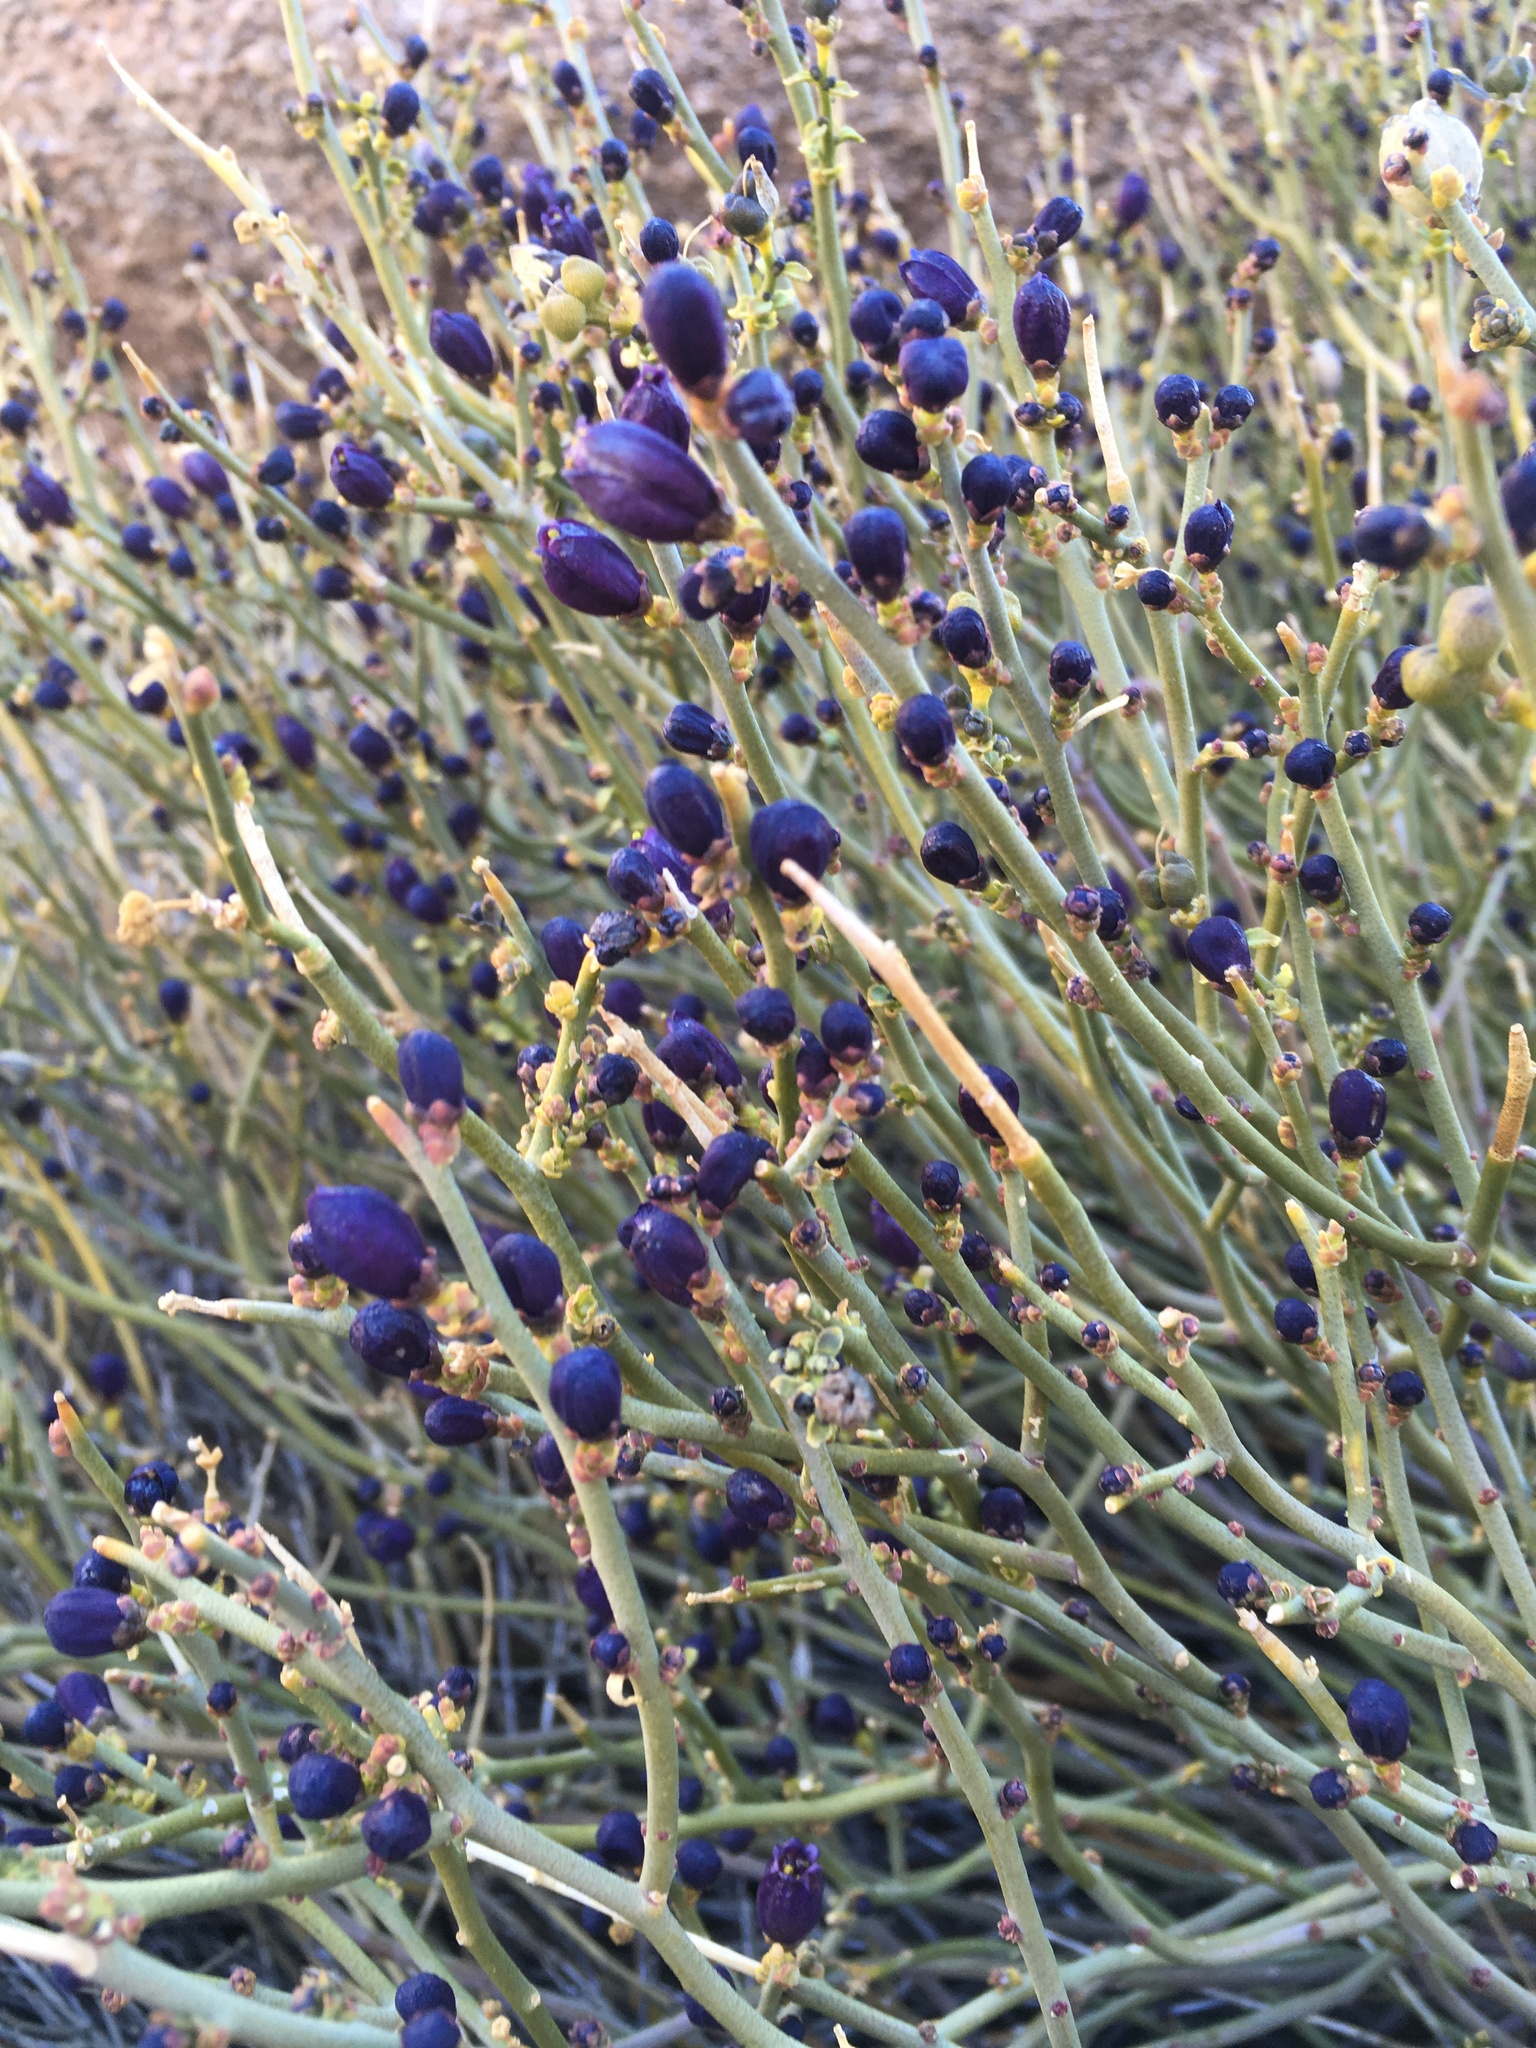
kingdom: Plantae
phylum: Tracheophyta
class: Magnoliopsida
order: Sapindales
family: Rutaceae
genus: Thamnosma
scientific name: Thamnosma montana
